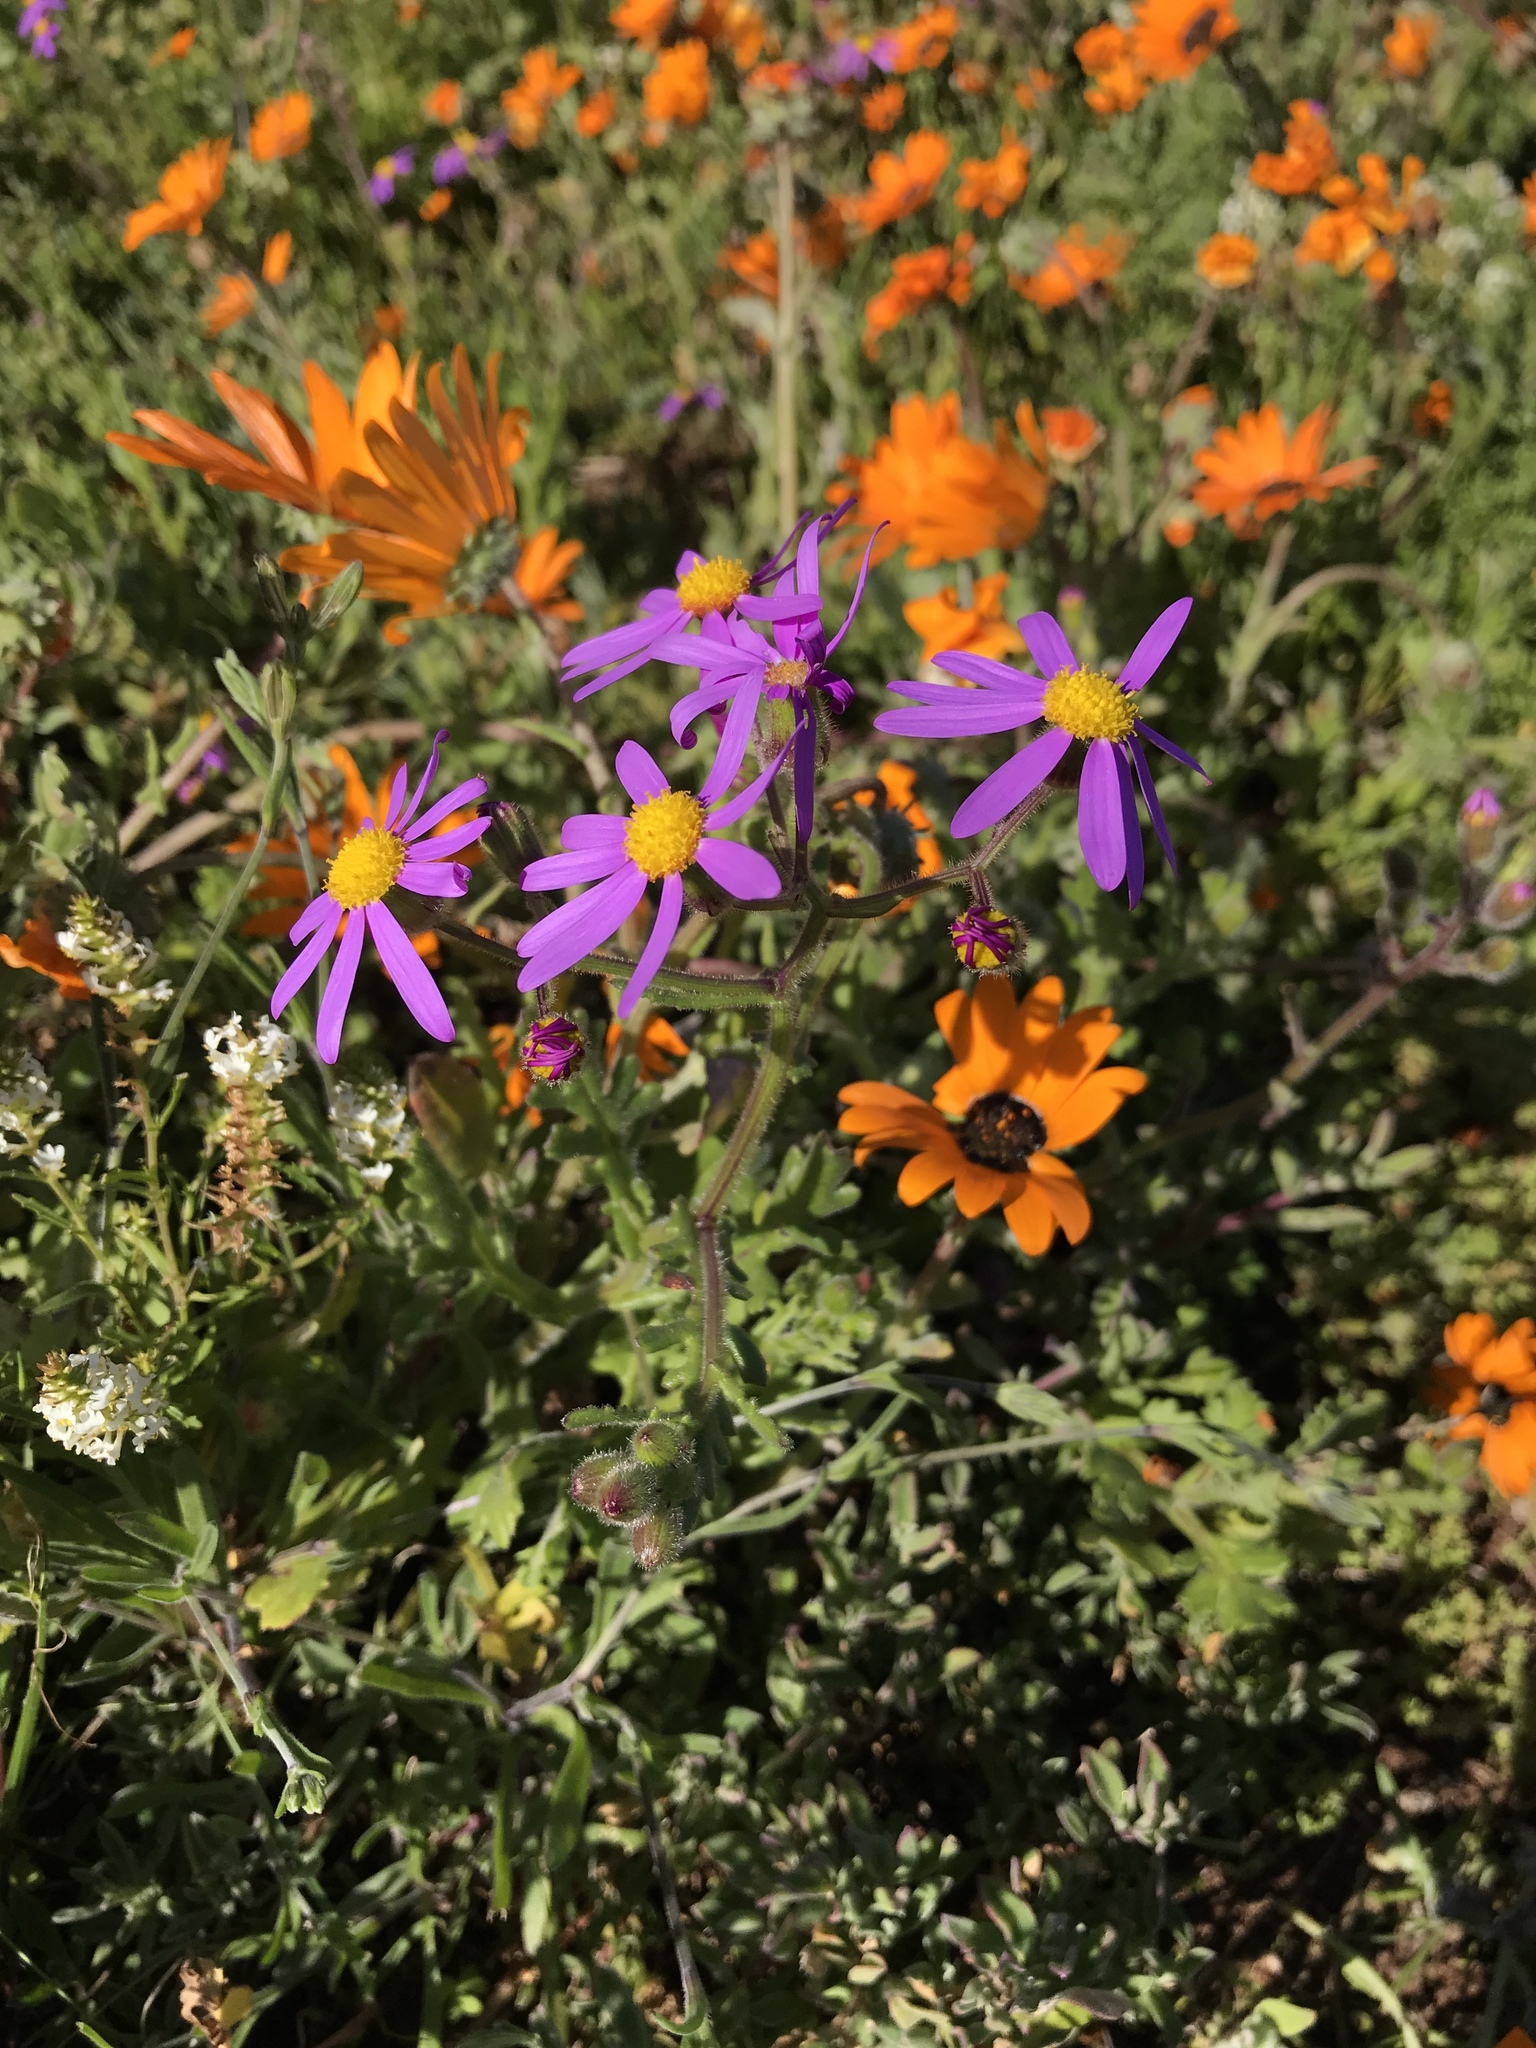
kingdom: Plantae
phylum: Tracheophyta
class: Magnoliopsida
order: Asterales
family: Asteraceae
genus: Senecio
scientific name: Senecio arenarius
